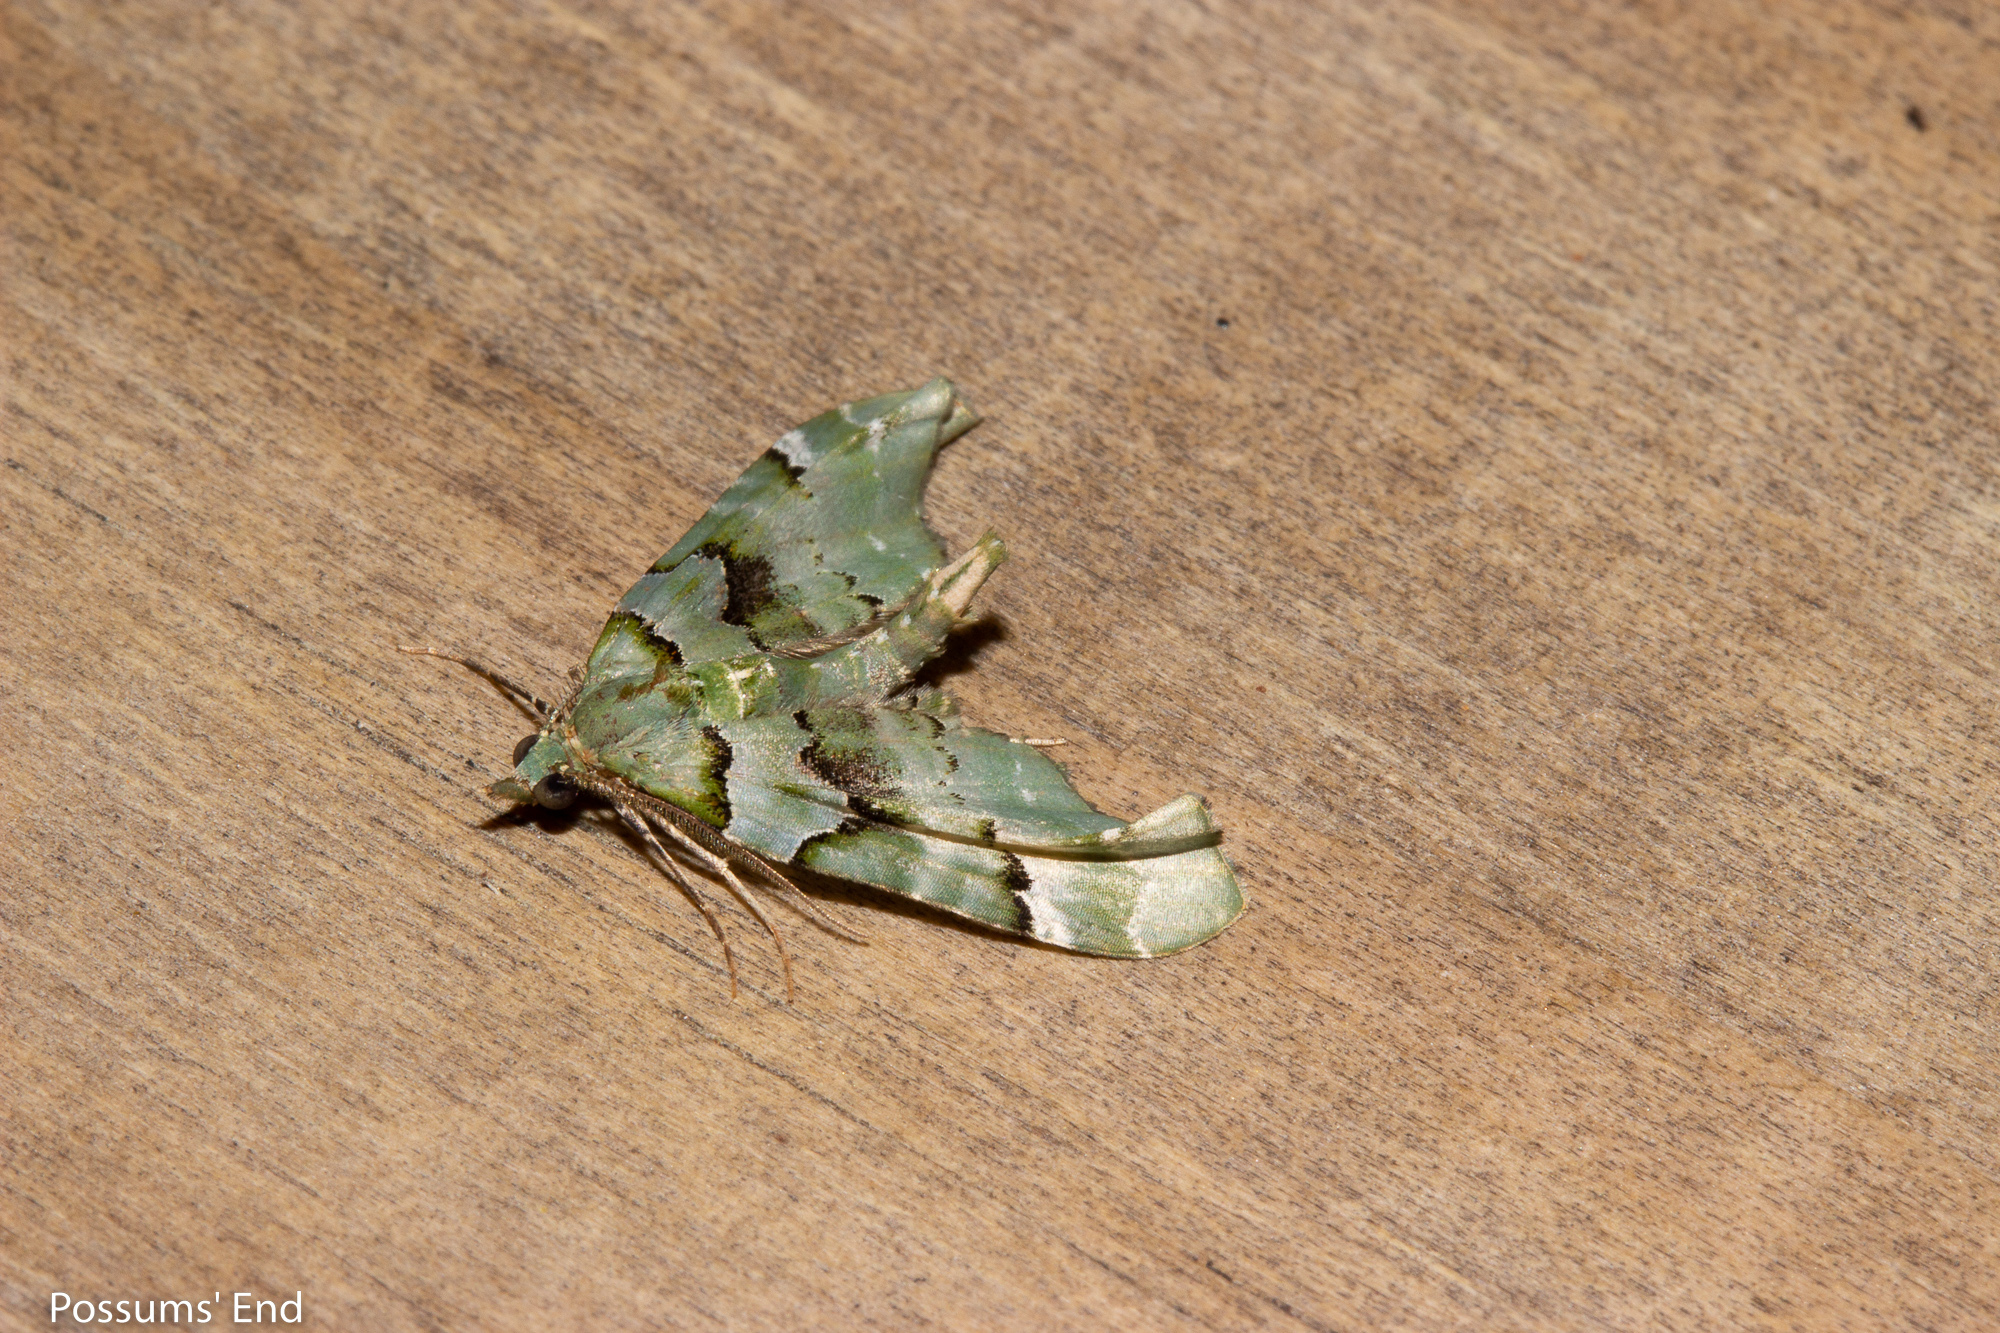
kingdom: Animalia
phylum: Arthropoda
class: Insecta
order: Lepidoptera
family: Geometridae
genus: Elvia
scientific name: Elvia glaucata
